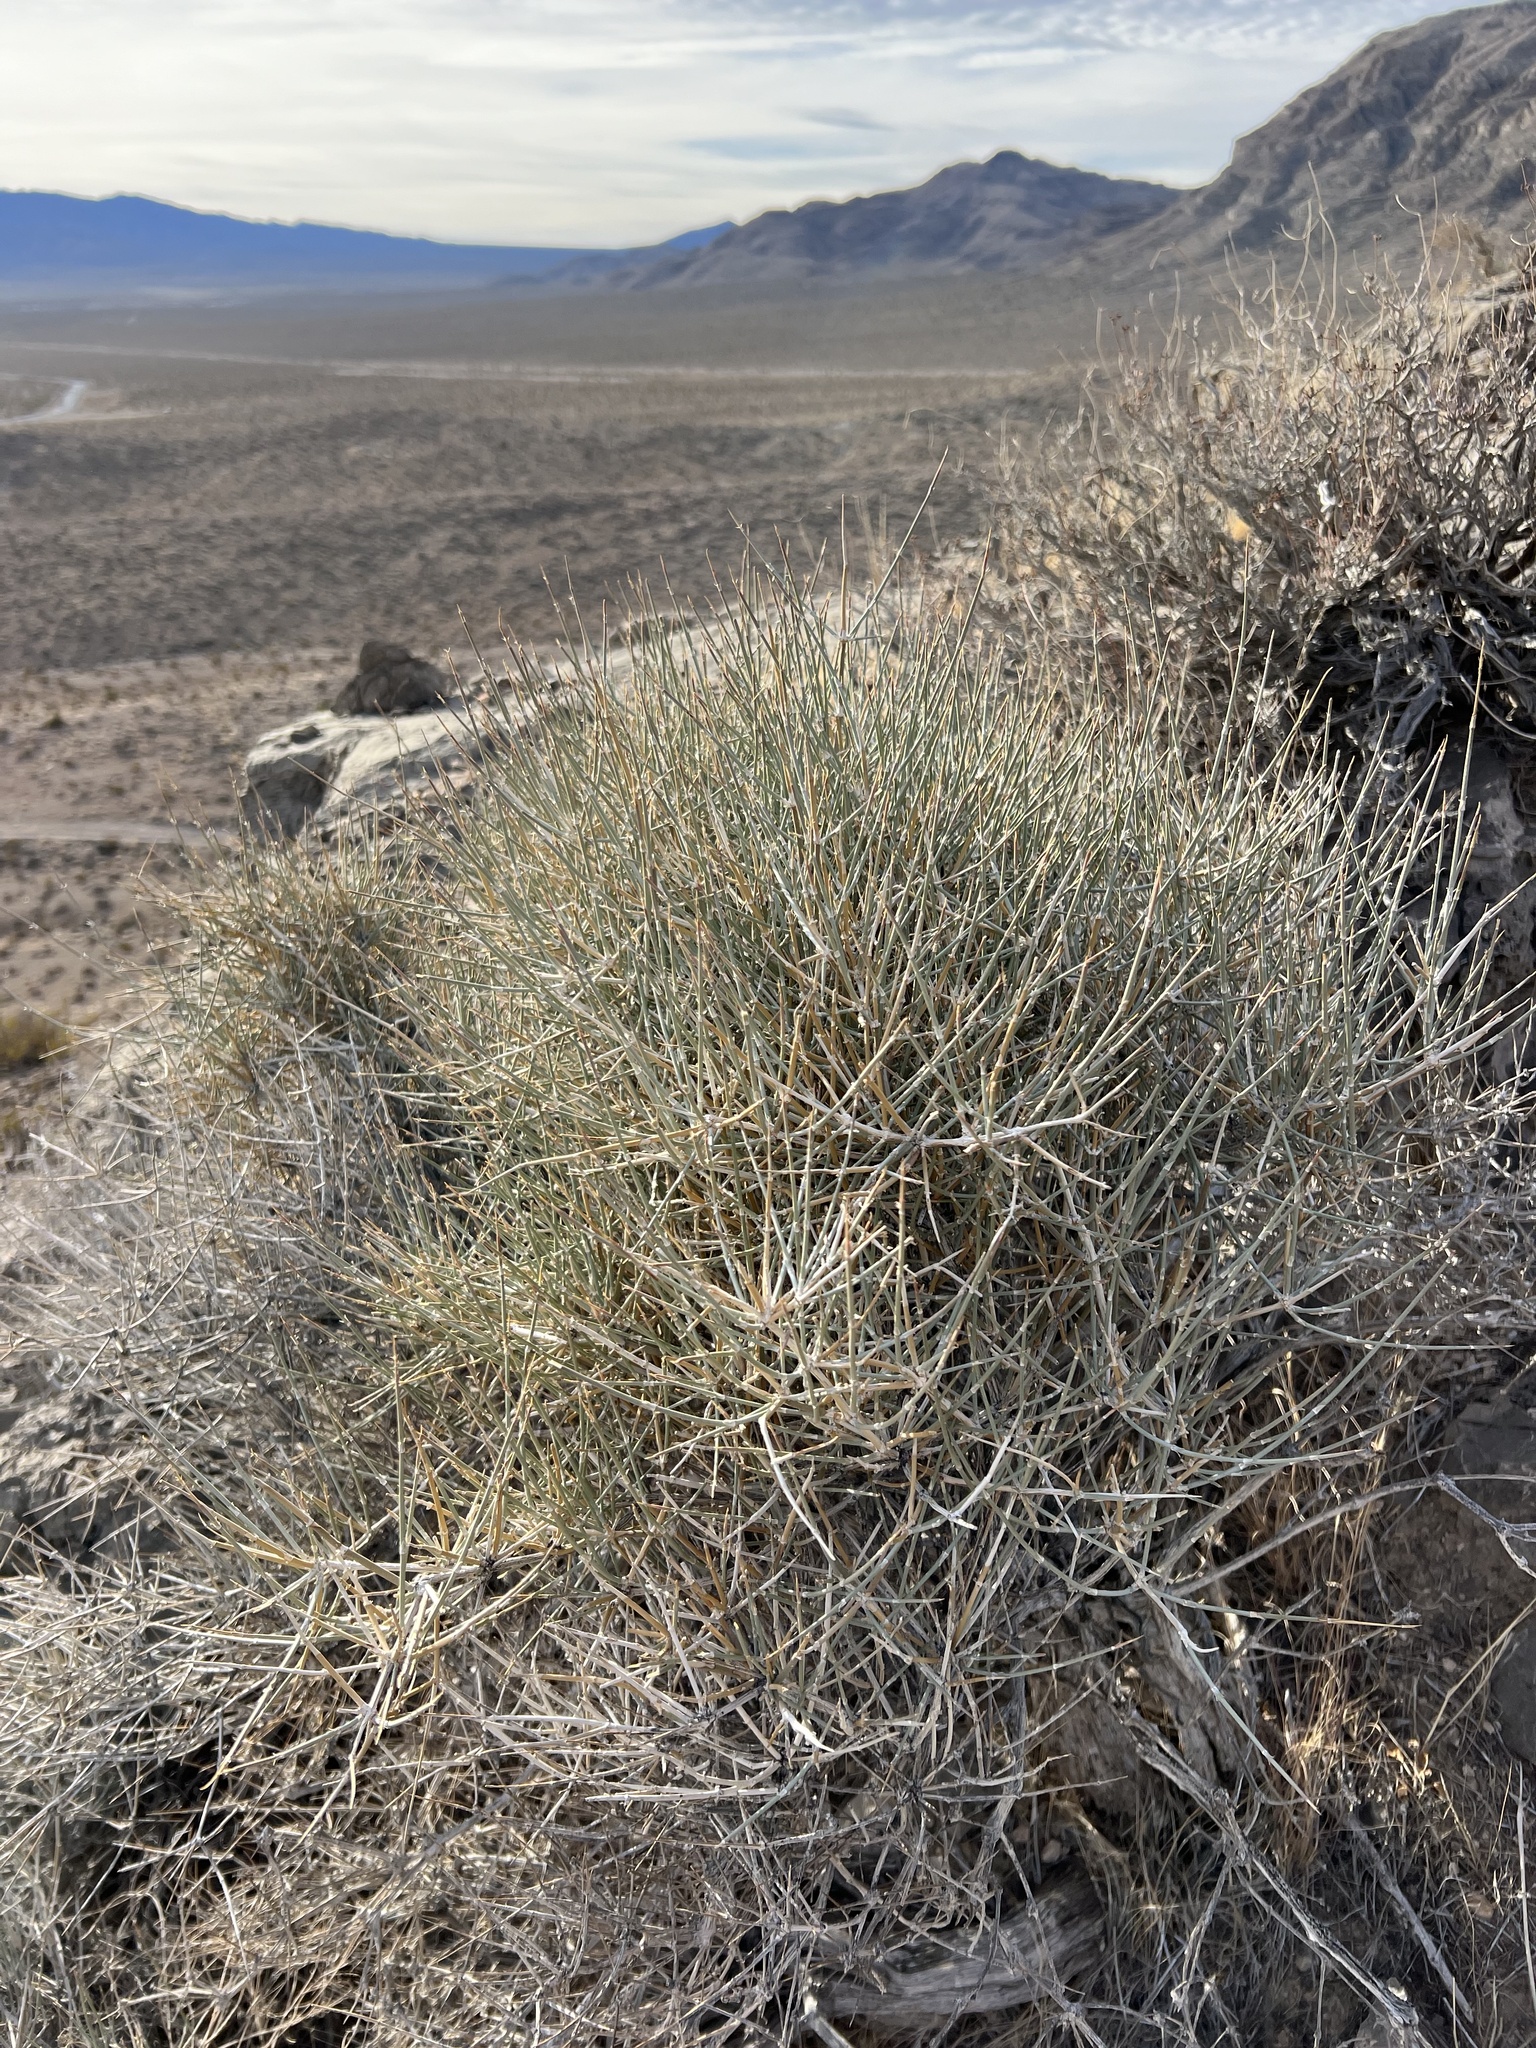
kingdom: Plantae
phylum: Tracheophyta
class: Gnetopsida
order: Ephedrales
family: Ephedraceae
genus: Ephedra
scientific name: Ephedra nevadensis
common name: Gray ephedra
